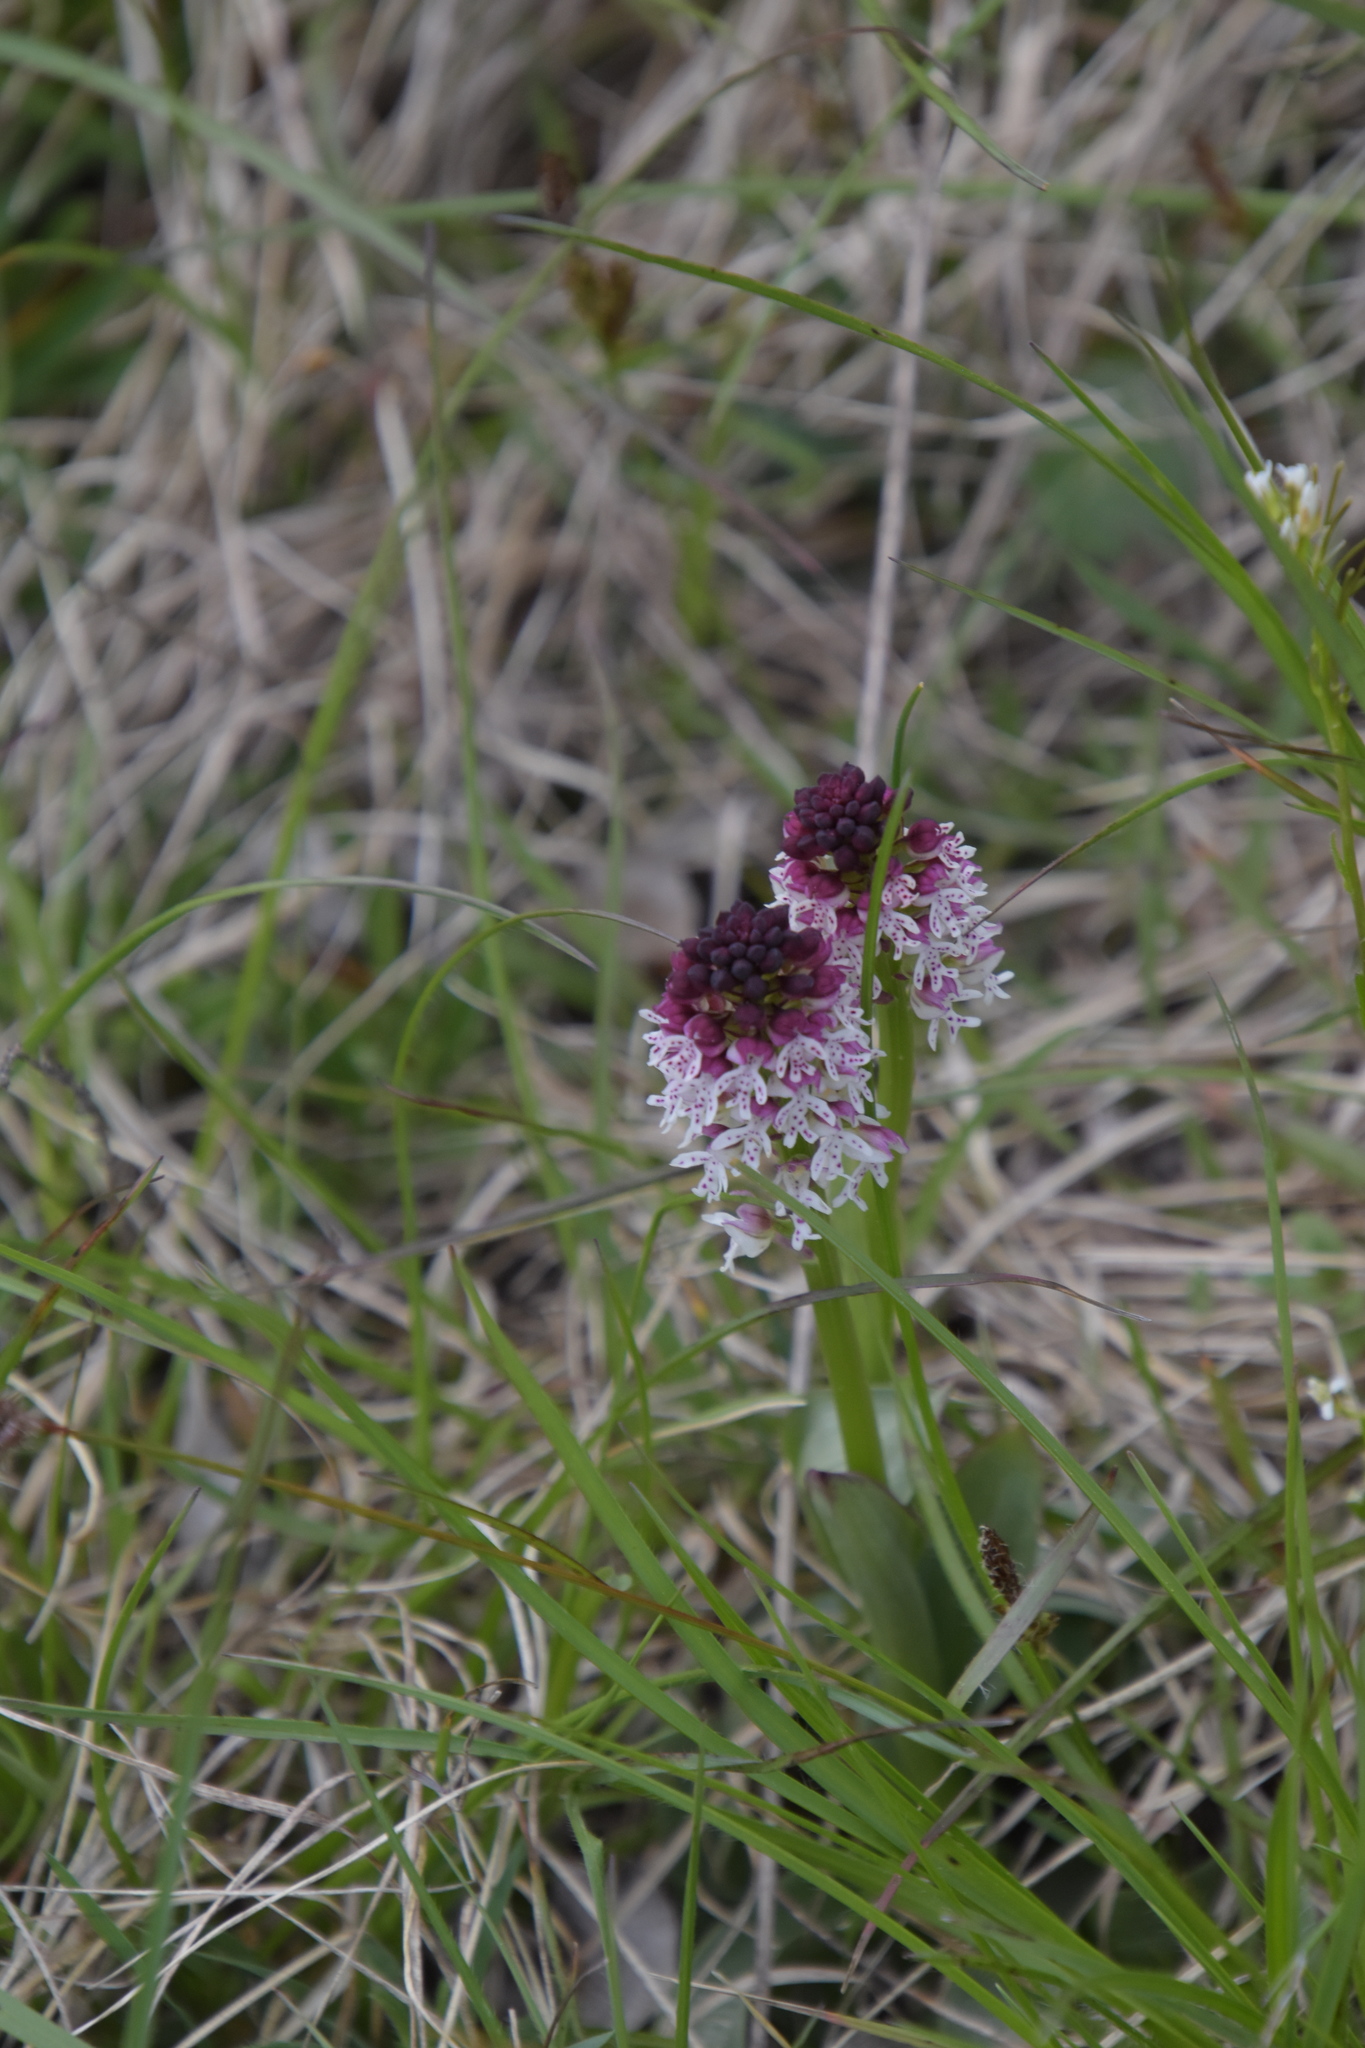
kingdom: Plantae
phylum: Tracheophyta
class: Liliopsida
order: Asparagales
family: Orchidaceae
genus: Neotinea
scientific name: Neotinea ustulata
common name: Burnt orchid
